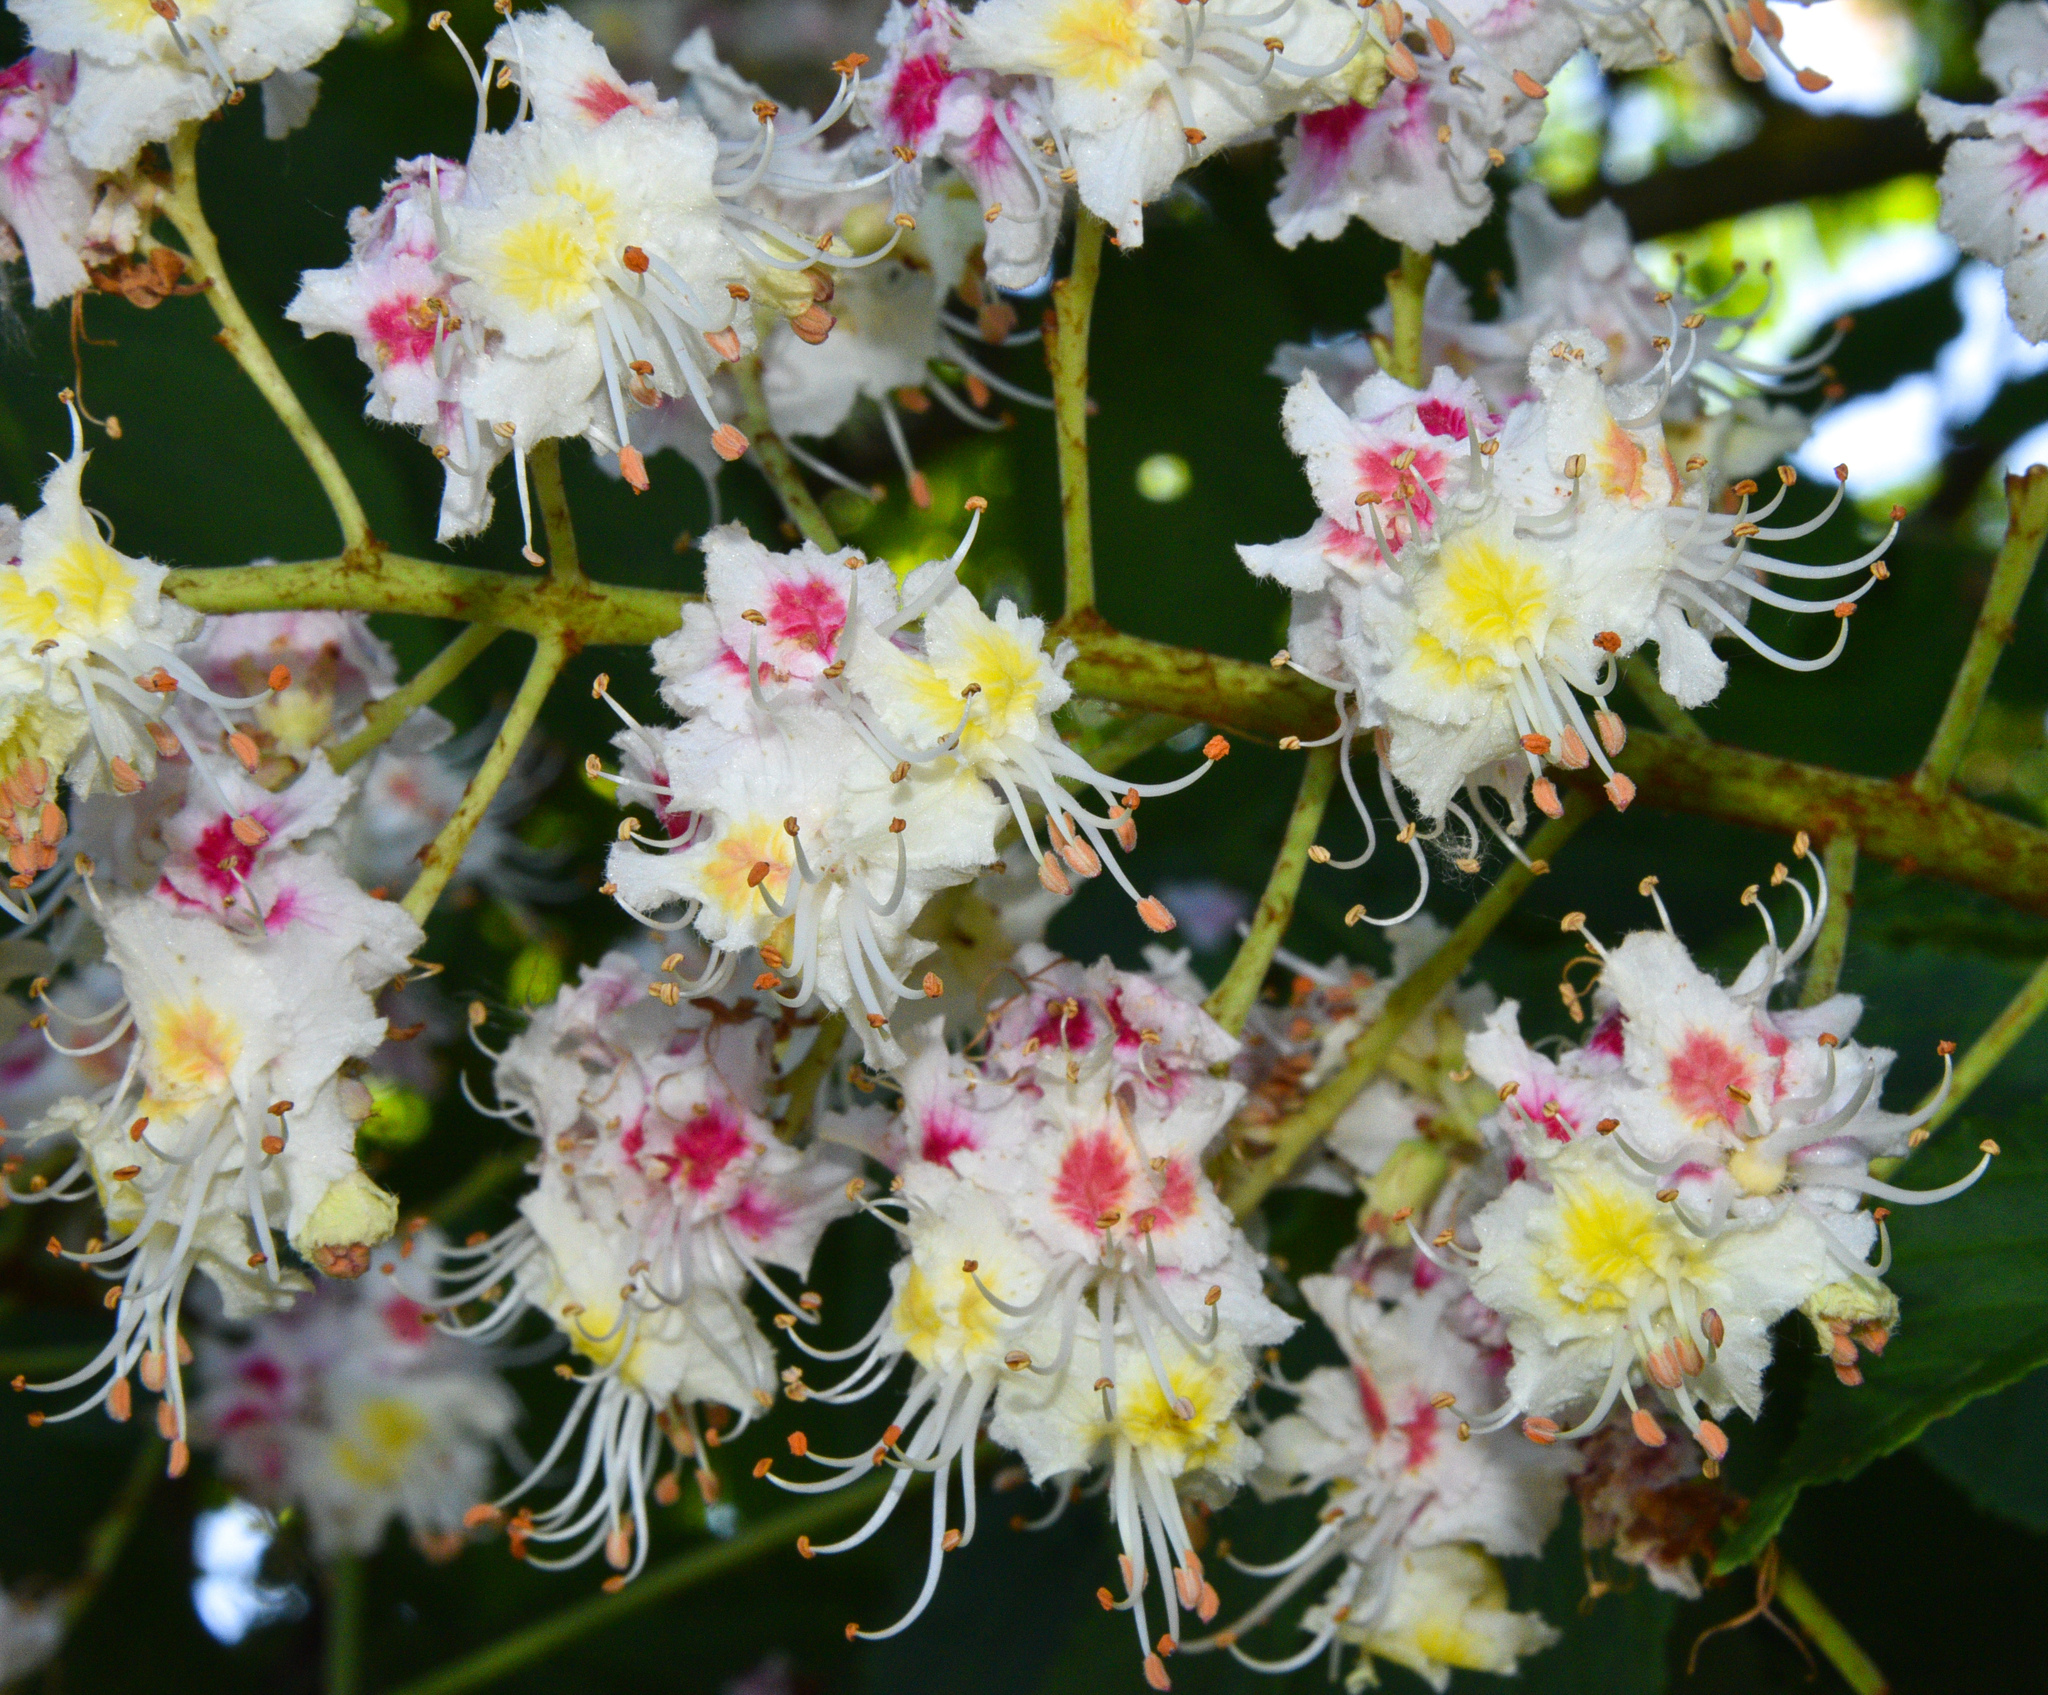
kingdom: Plantae
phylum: Tracheophyta
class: Magnoliopsida
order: Sapindales
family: Sapindaceae
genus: Aesculus
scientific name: Aesculus hippocastanum
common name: Horse-chestnut
